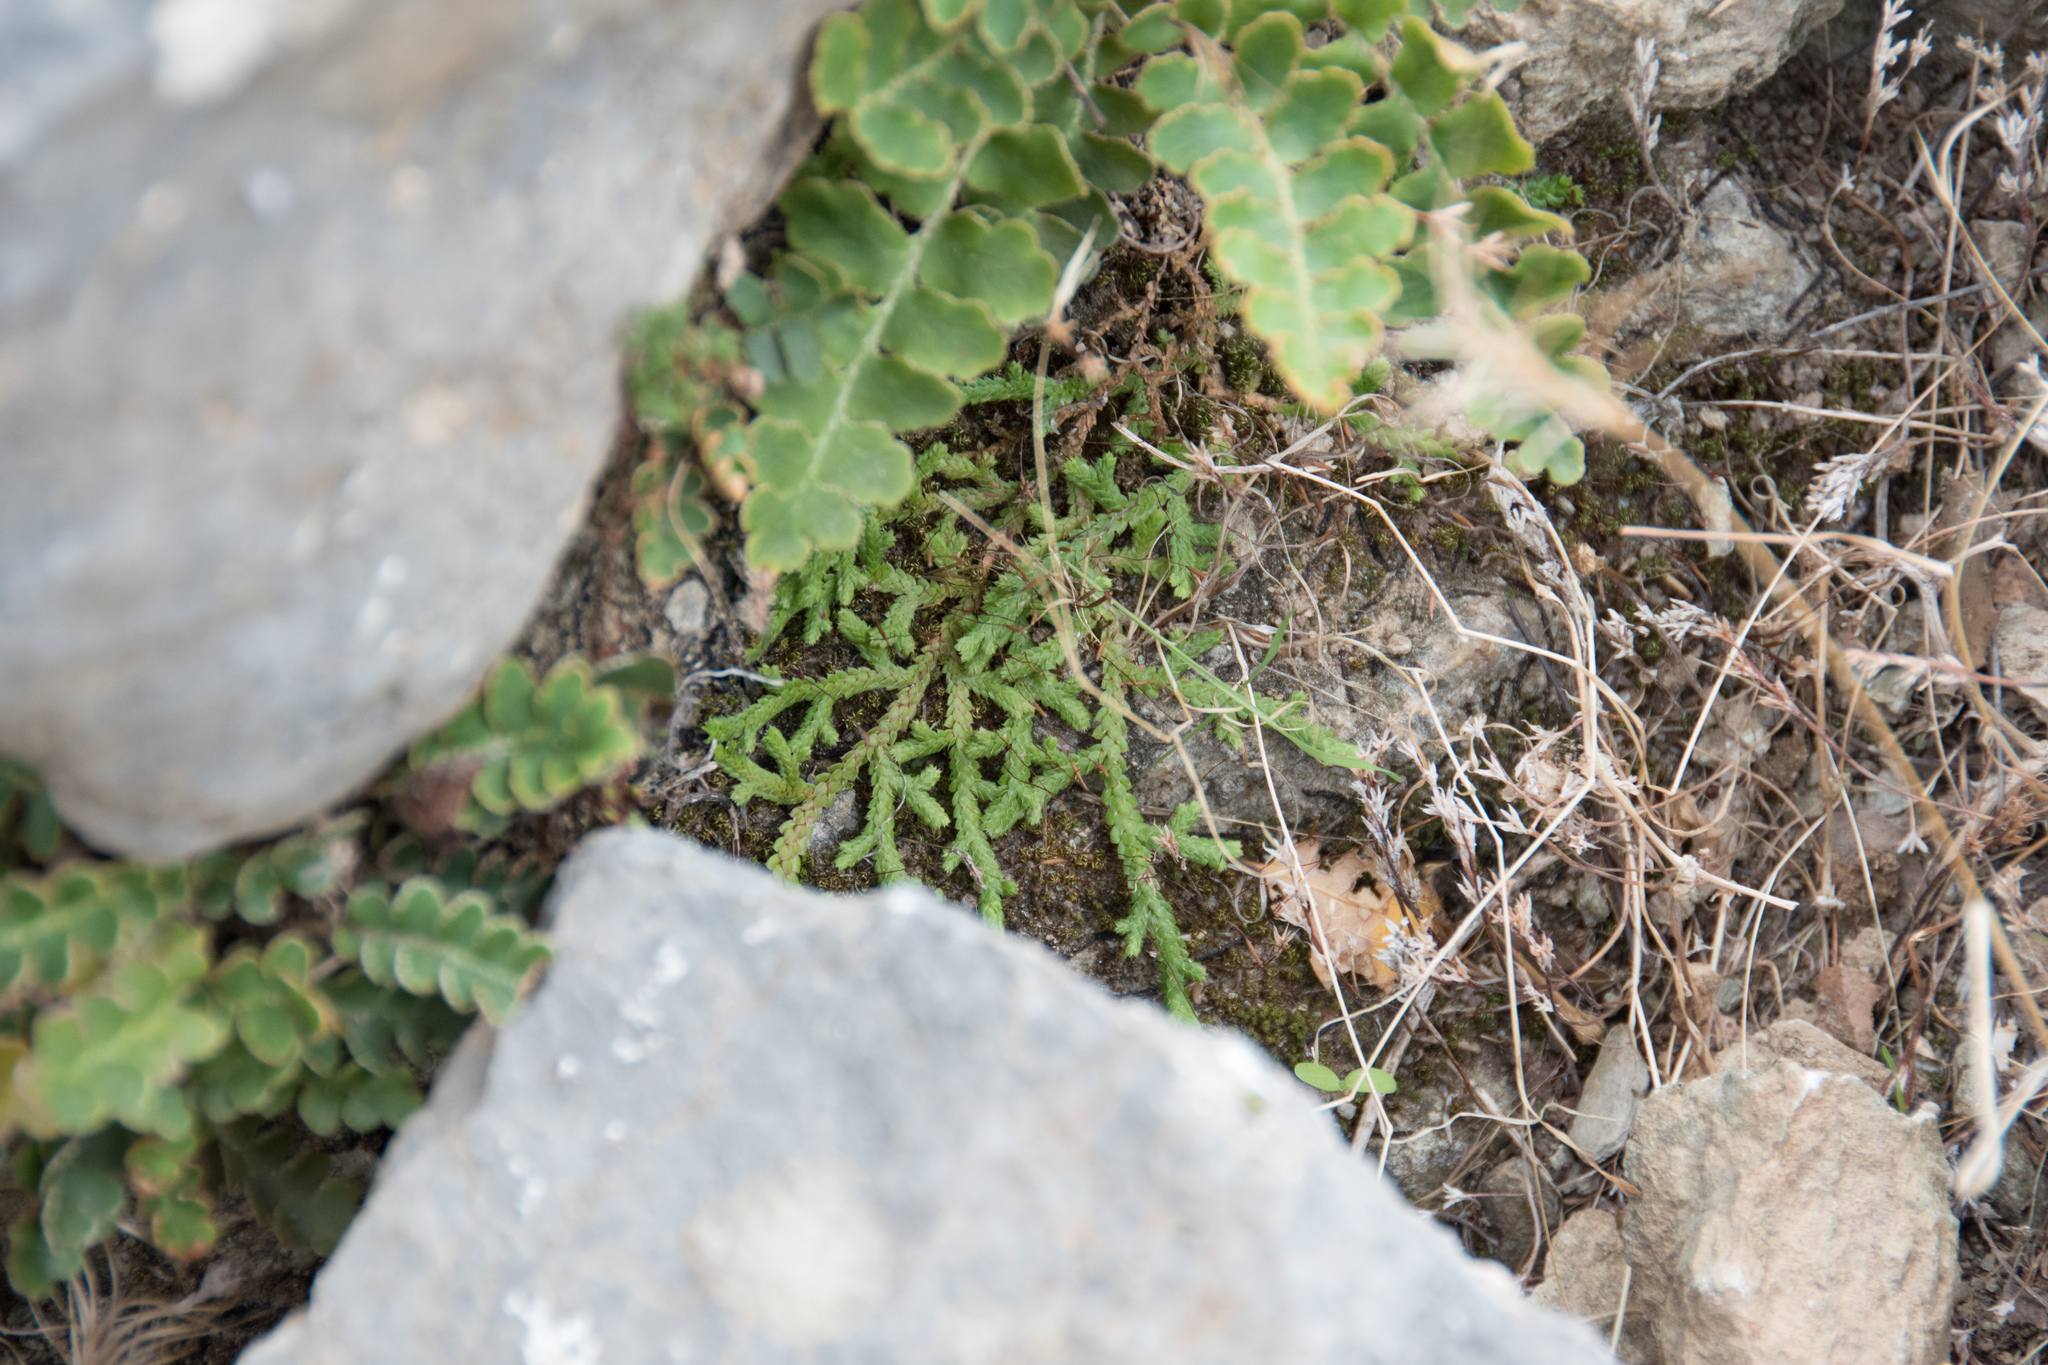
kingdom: Plantae
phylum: Tracheophyta
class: Lycopodiopsida
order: Selaginellales
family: Selaginellaceae
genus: Selaginella
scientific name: Selaginella denticulata
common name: Toothed-leaved clubmoss
